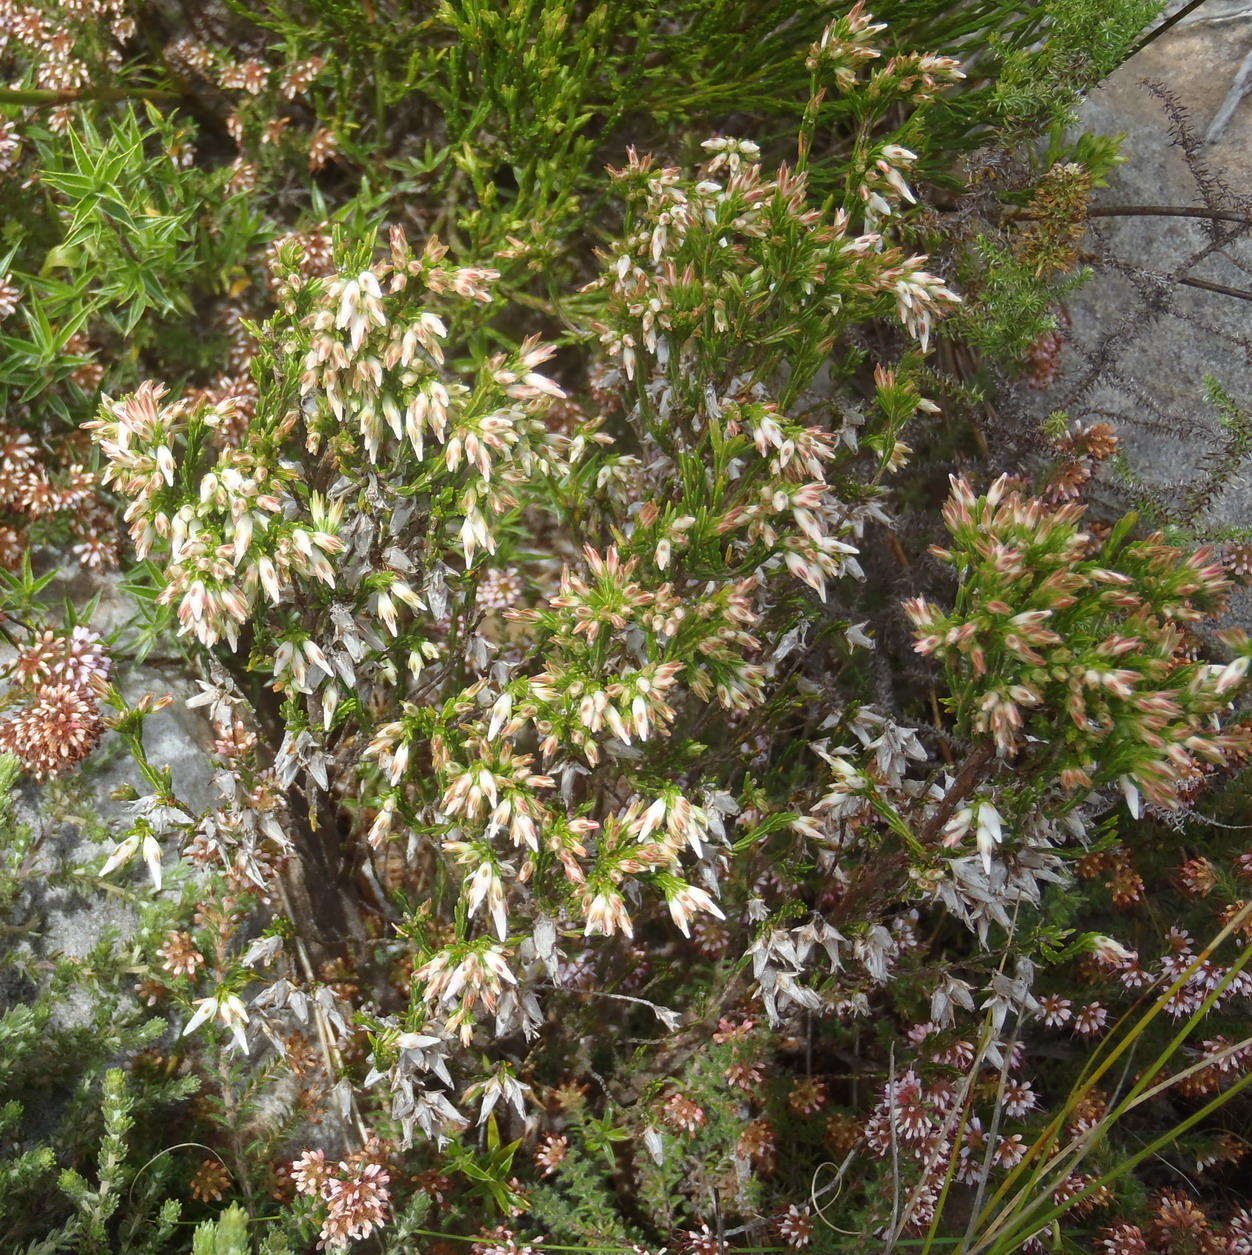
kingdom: Plantae
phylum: Tracheophyta
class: Magnoliopsida
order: Ericales
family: Ericaceae
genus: Erica
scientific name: Erica lutea
